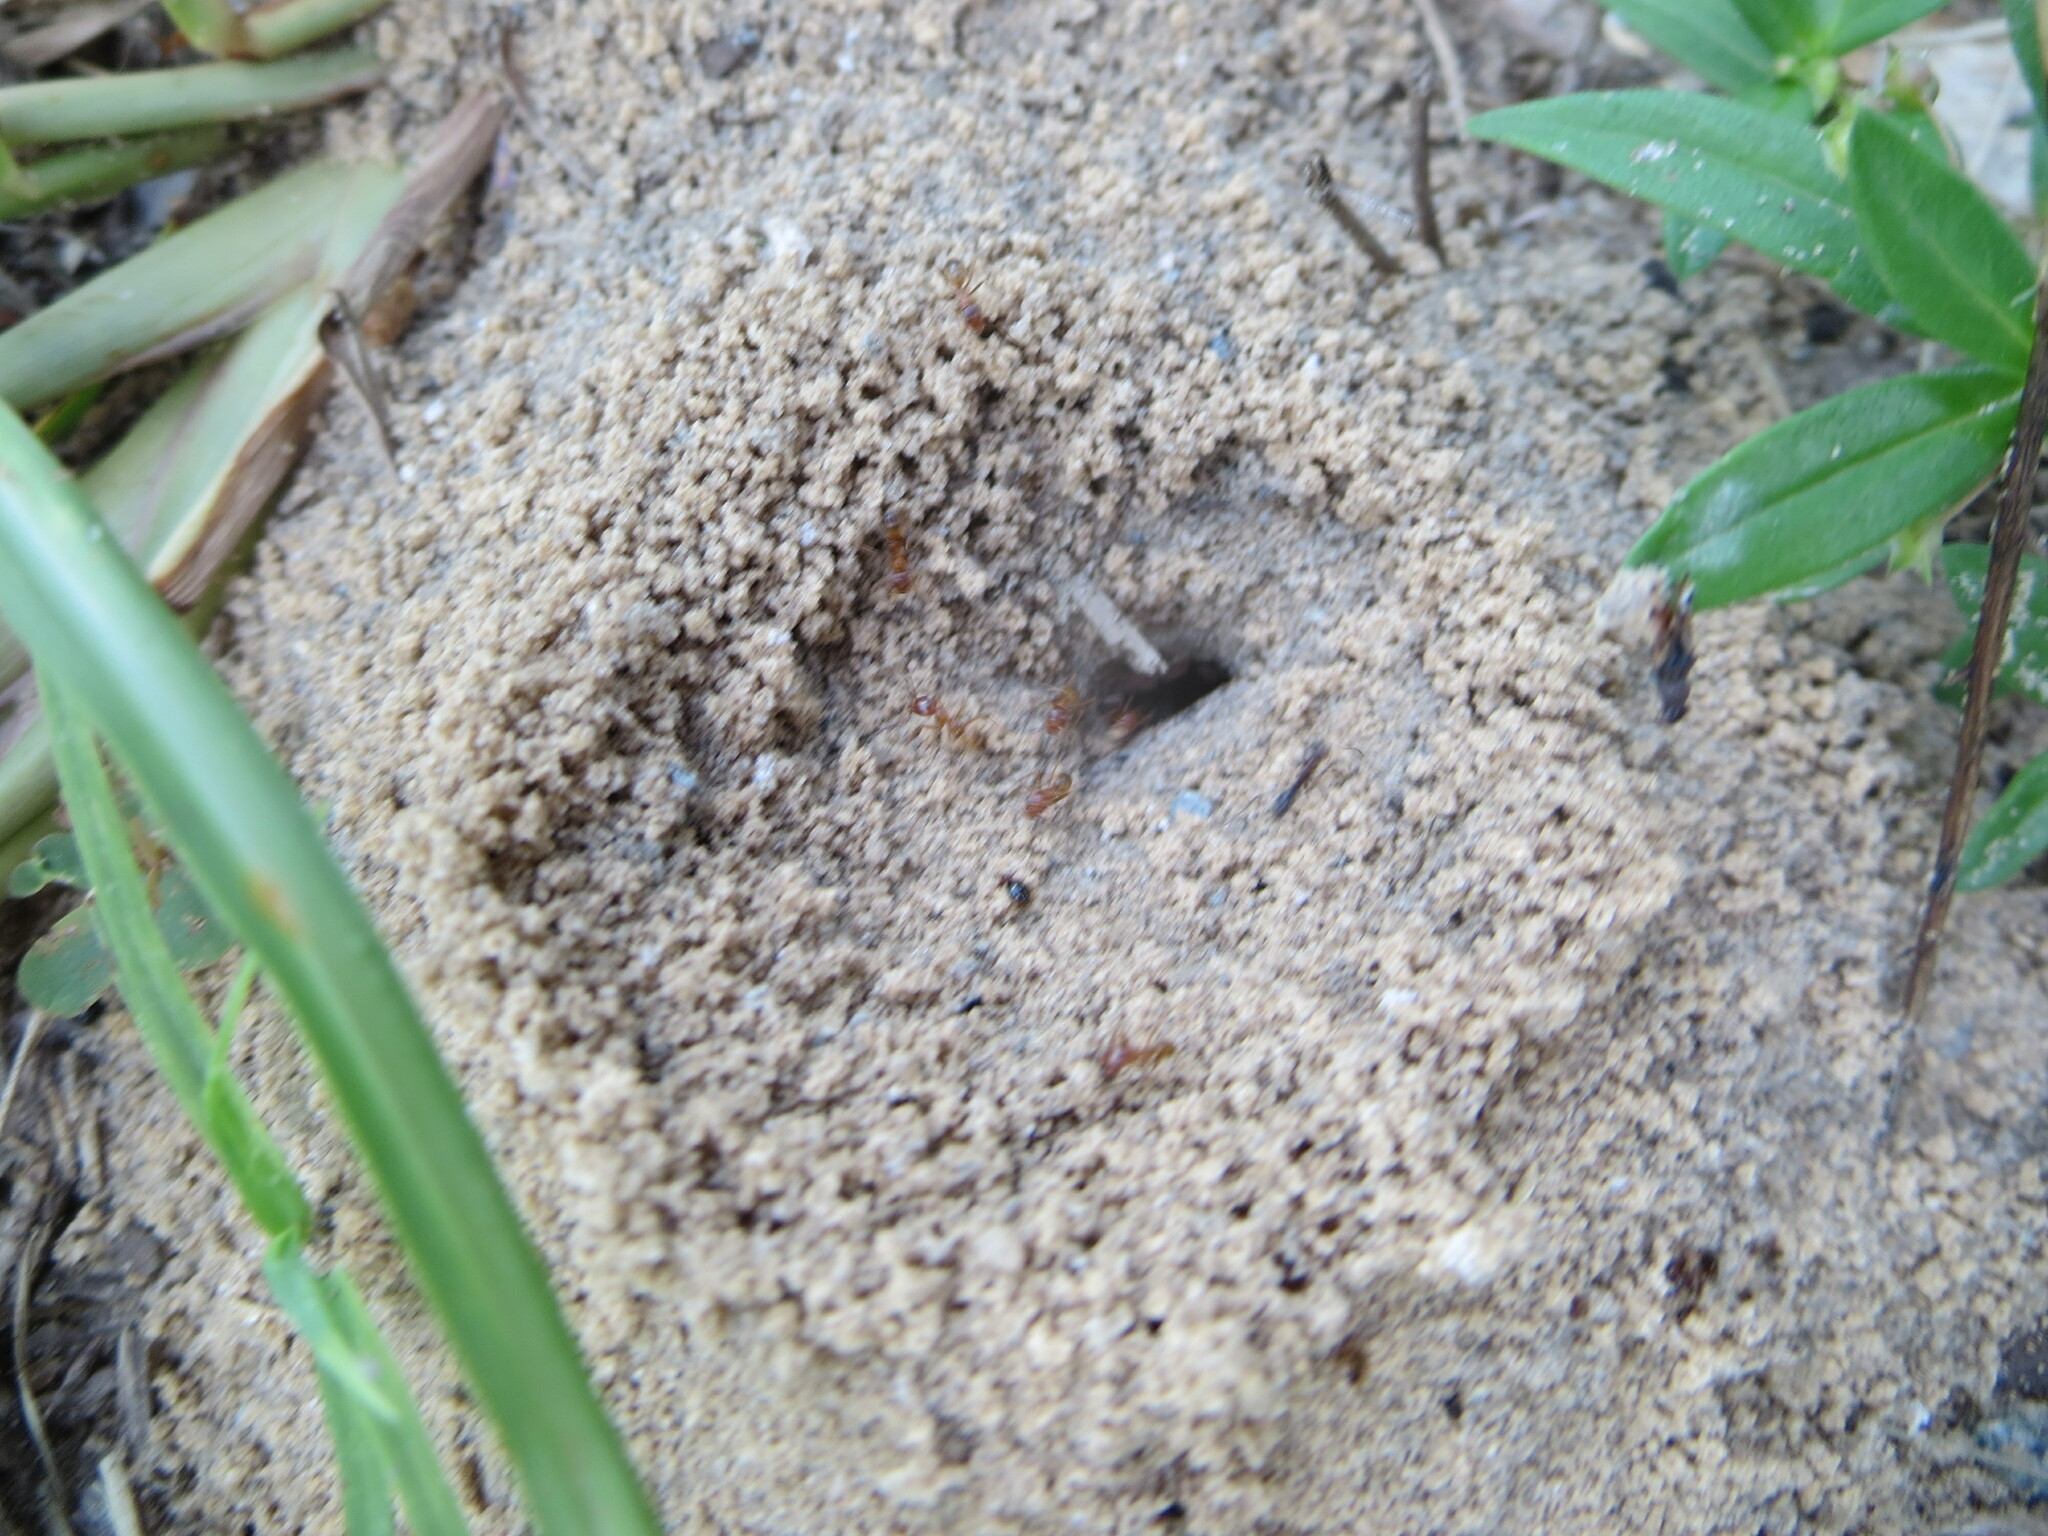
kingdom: Animalia
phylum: Arthropoda
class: Insecta
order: Hymenoptera
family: Formicidae
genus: Dorymyrmex
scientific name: Dorymyrmex bureni
